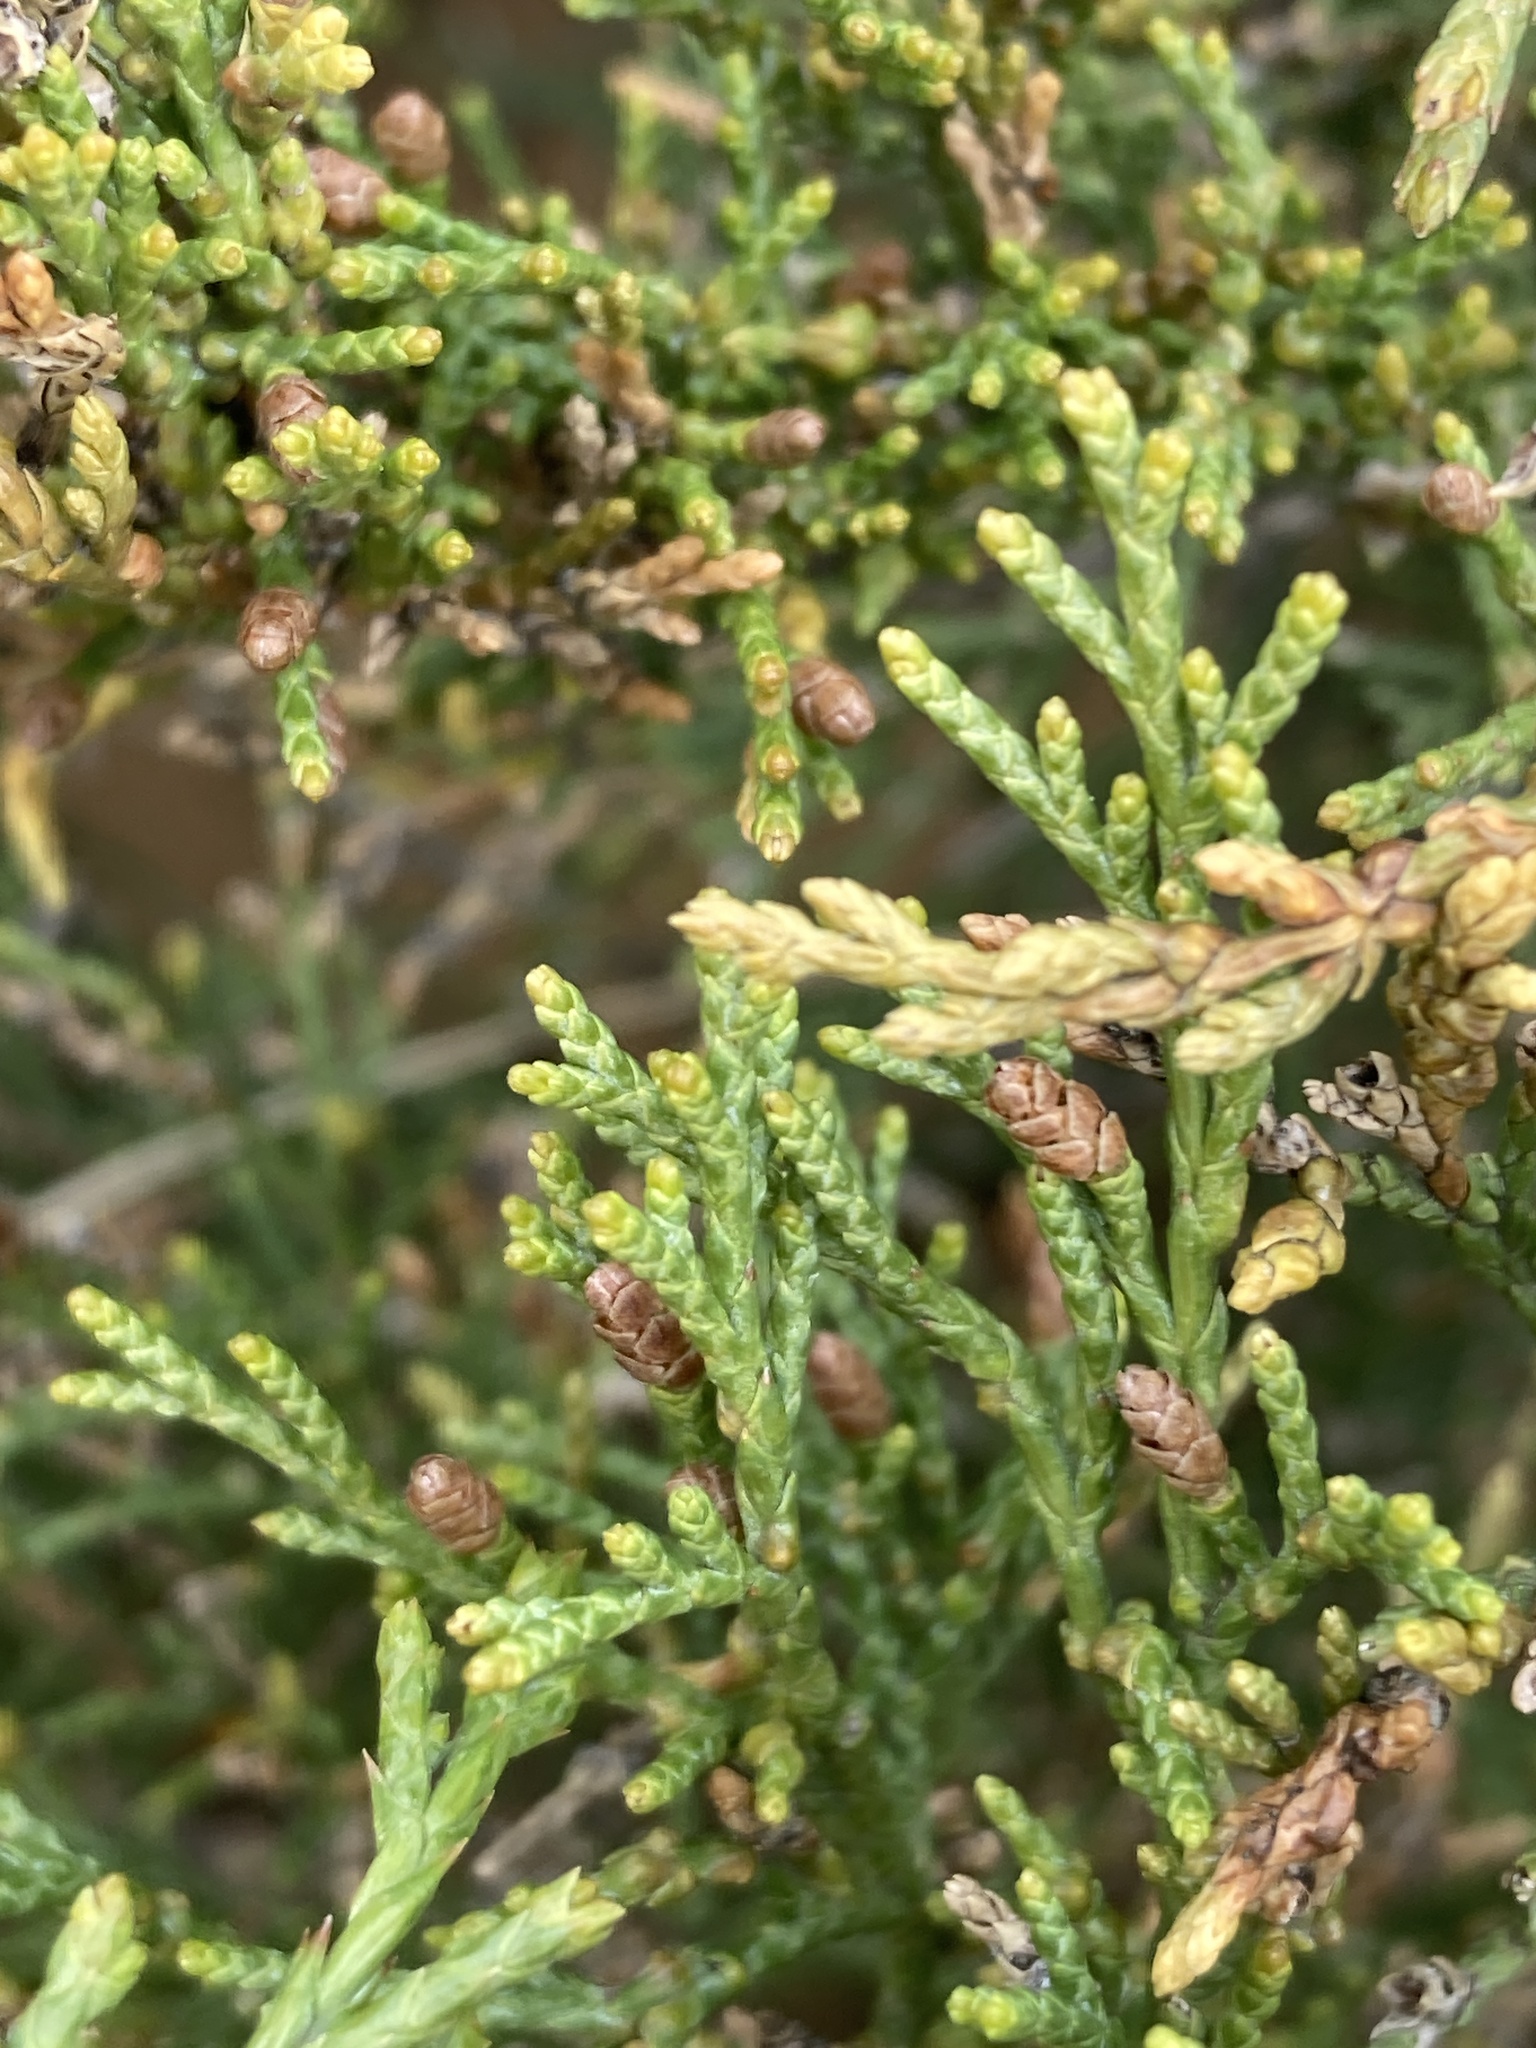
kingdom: Plantae
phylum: Tracheophyta
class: Pinopsida
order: Pinales
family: Cupressaceae
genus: Juniperus
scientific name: Juniperus sabina
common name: Savin
